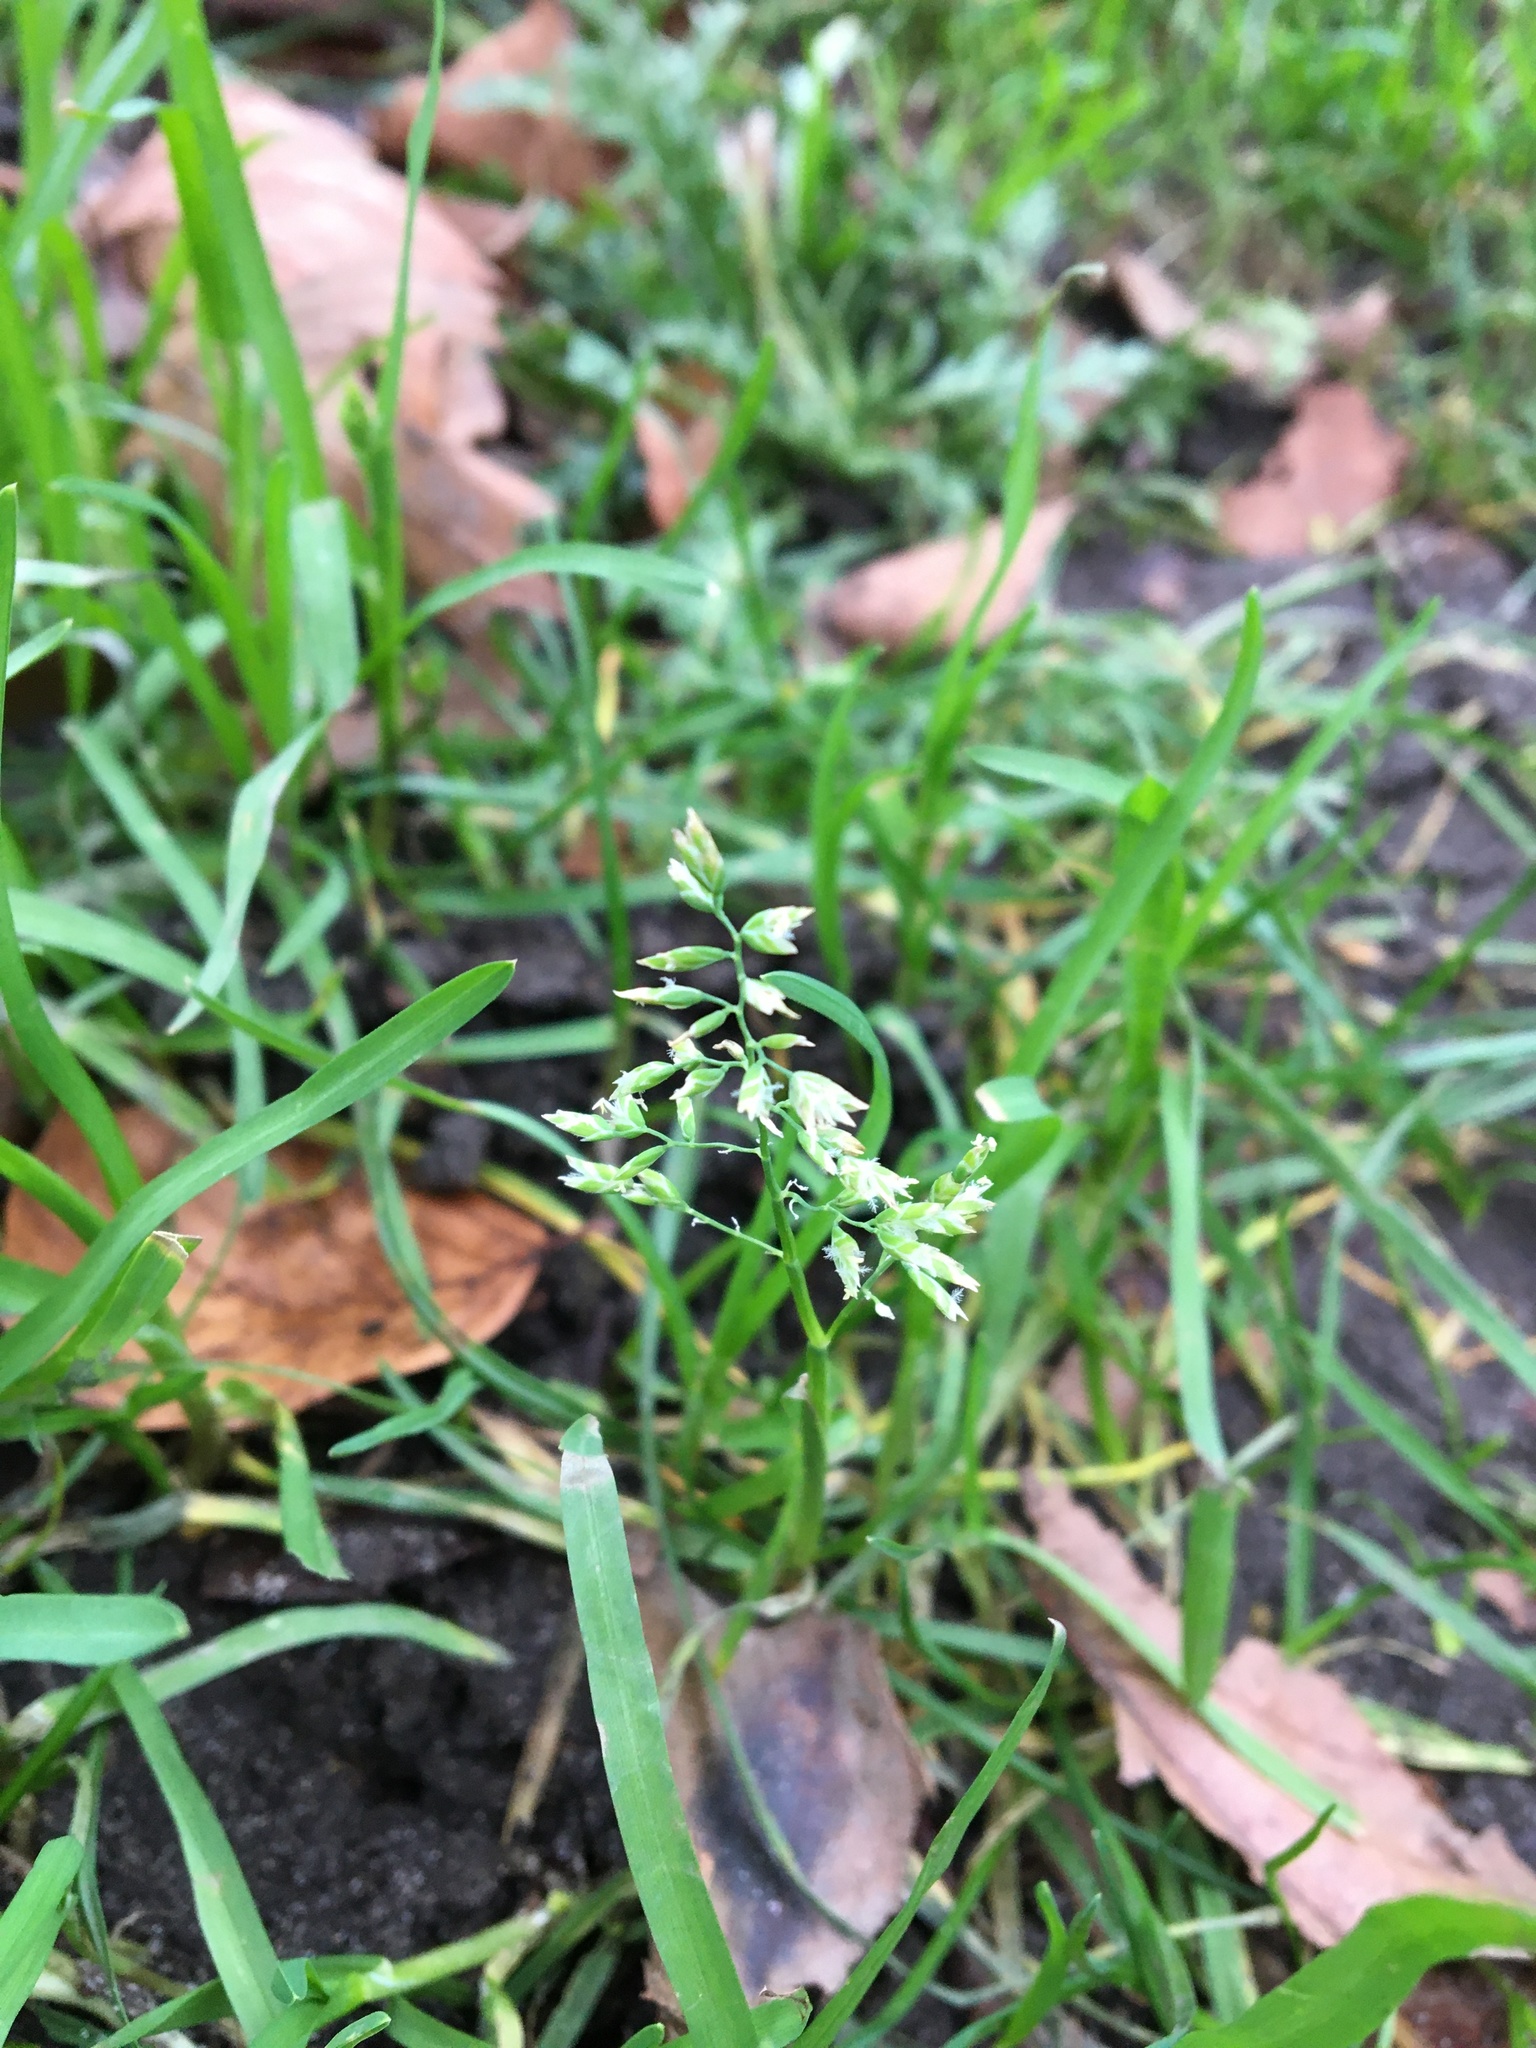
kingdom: Plantae
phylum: Tracheophyta
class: Liliopsida
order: Poales
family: Poaceae
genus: Poa
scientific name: Poa annua
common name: Annual bluegrass
